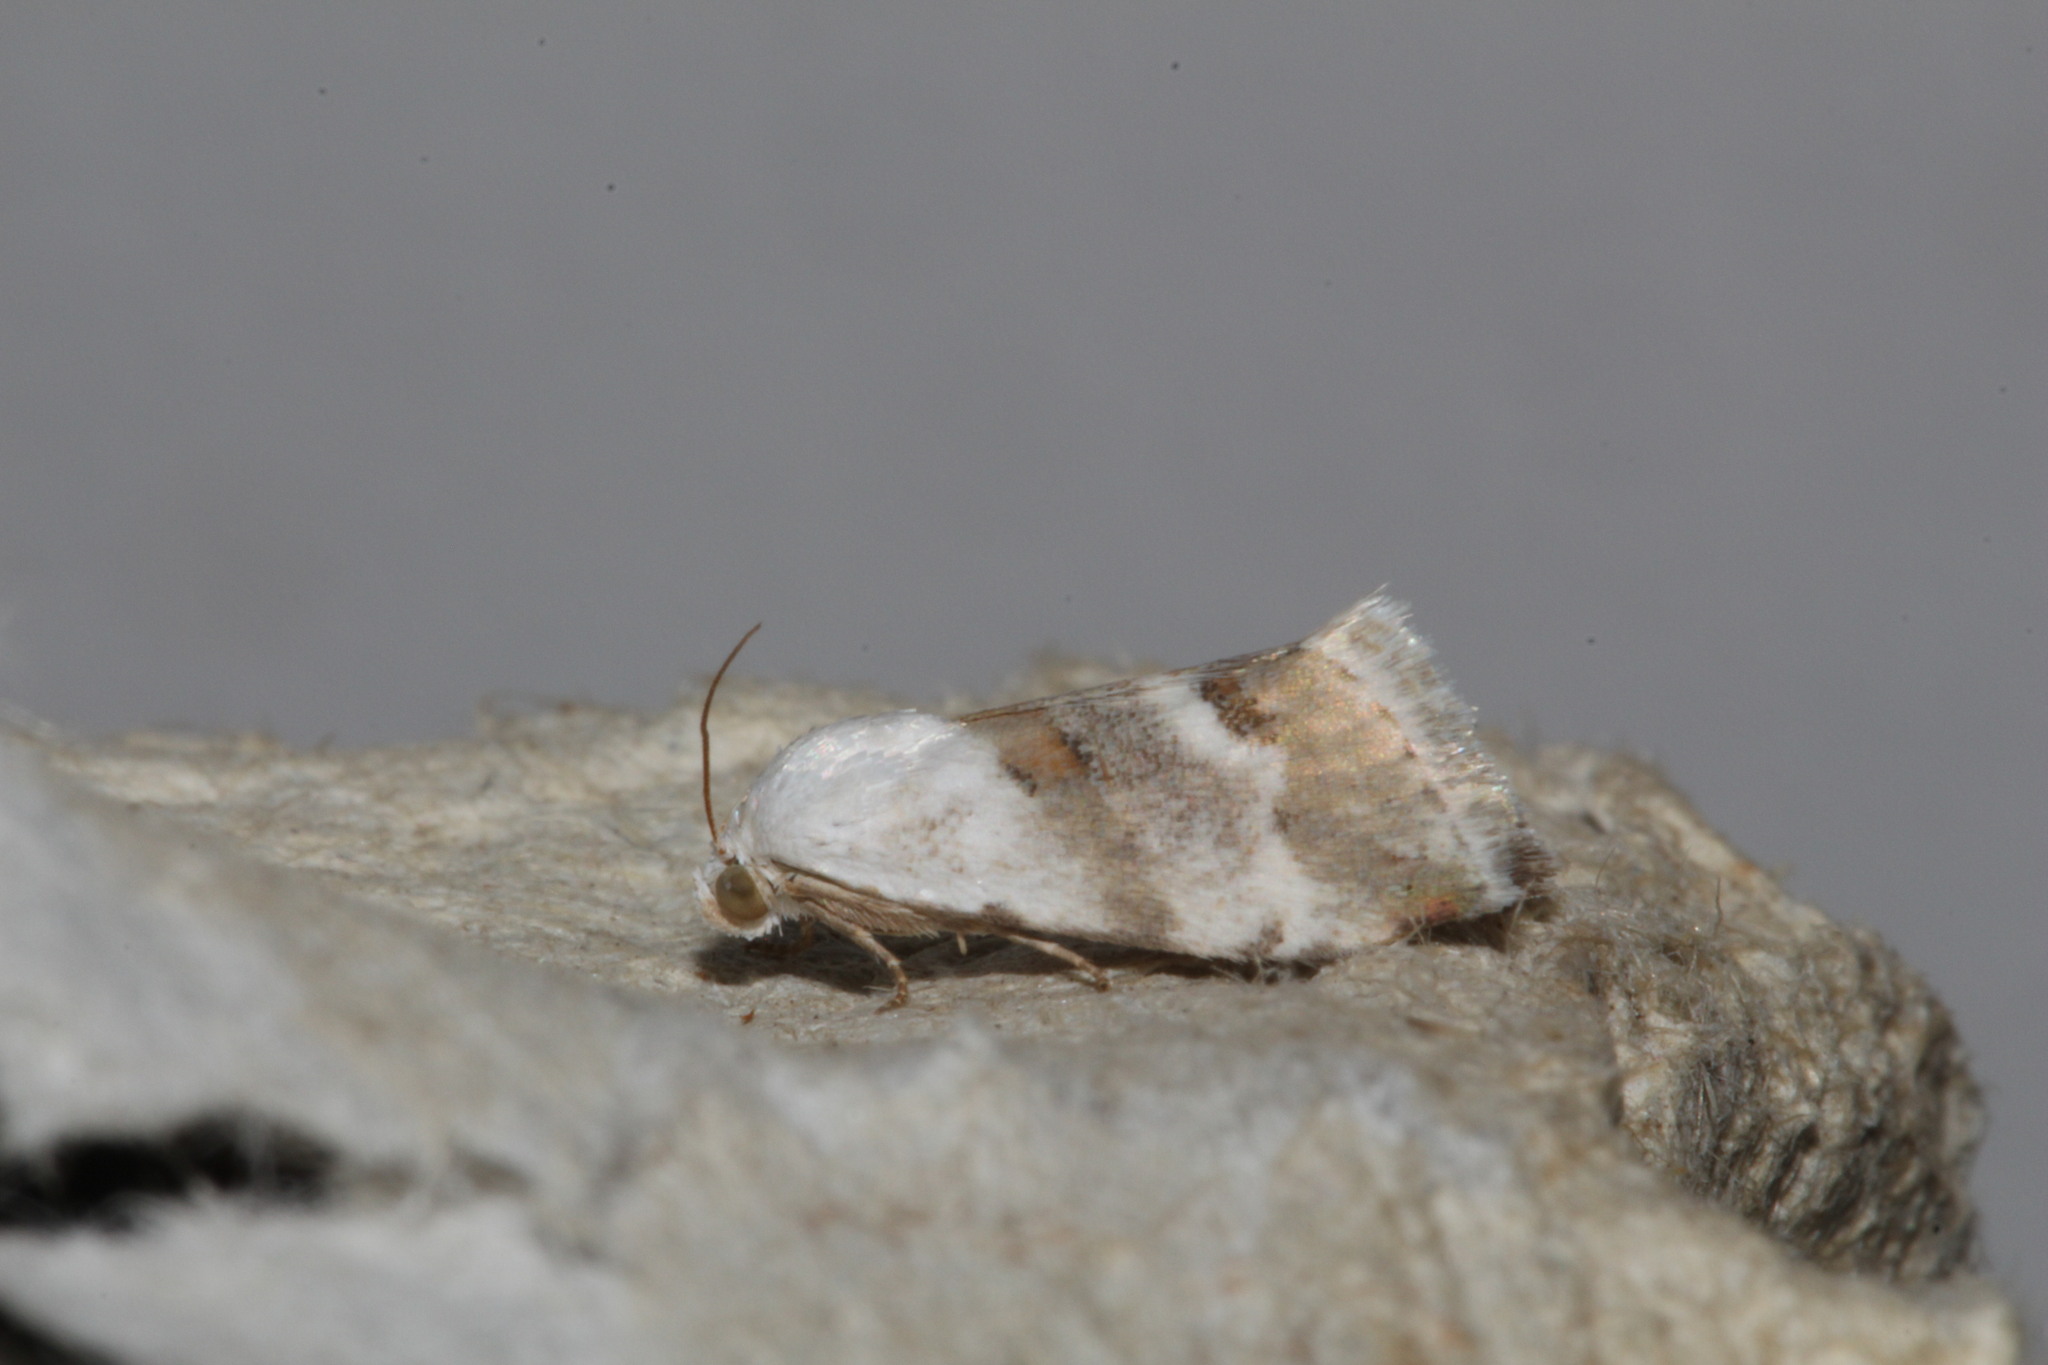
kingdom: Animalia
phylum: Arthropoda
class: Insecta
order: Lepidoptera
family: Noctuidae
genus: Eublemma
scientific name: Eublemma minutata
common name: Scarce marbled
